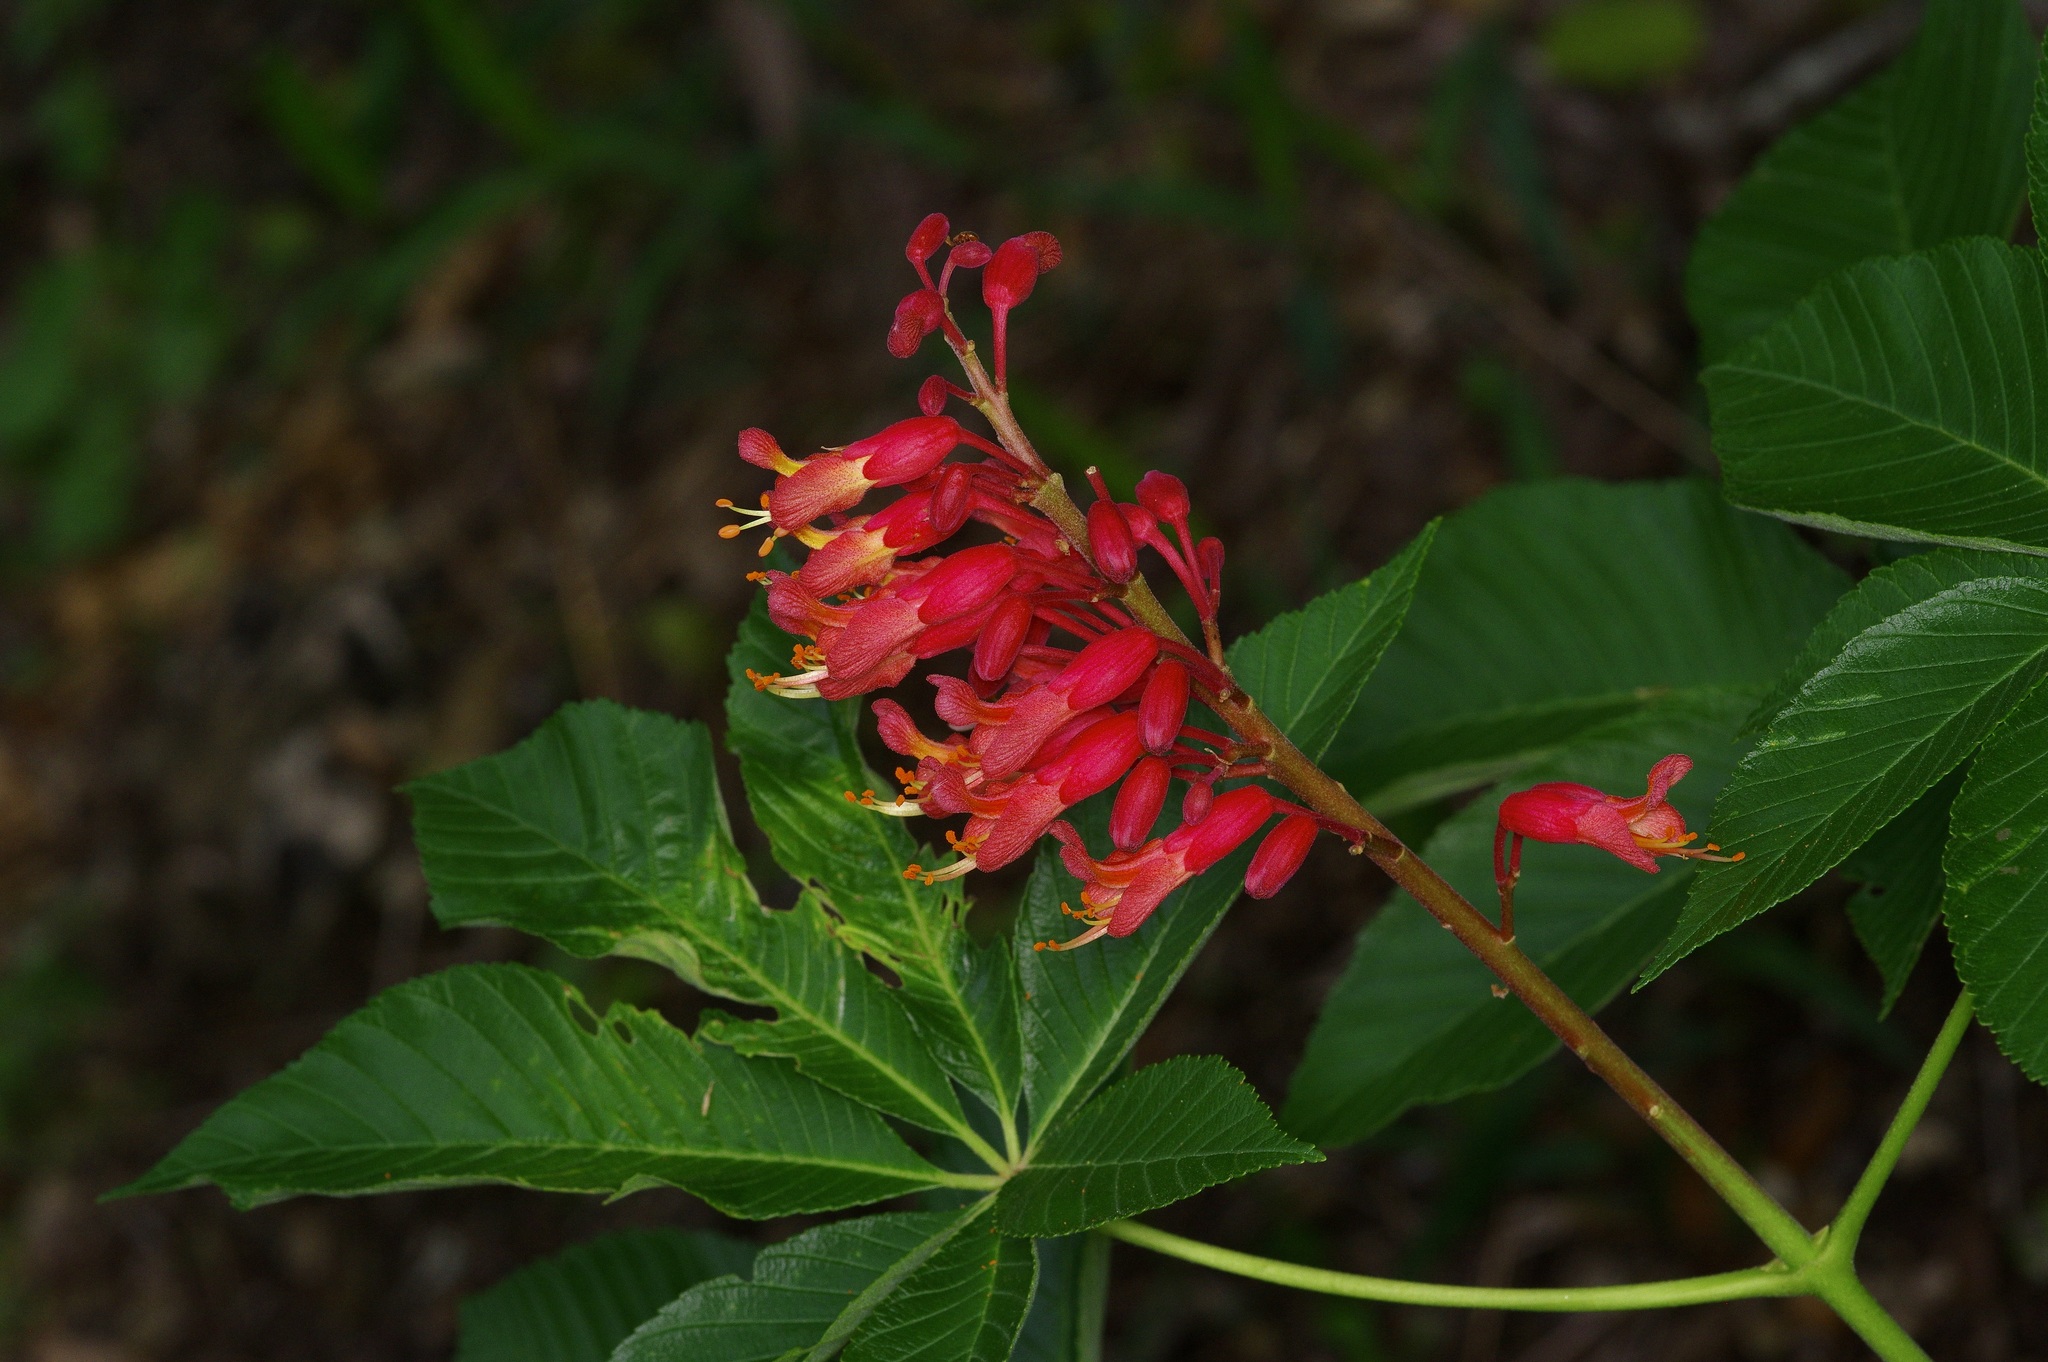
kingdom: Plantae
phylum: Tracheophyta
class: Magnoliopsida
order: Sapindales
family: Sapindaceae
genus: Aesculus
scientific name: Aesculus pavia
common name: Red buckeye
